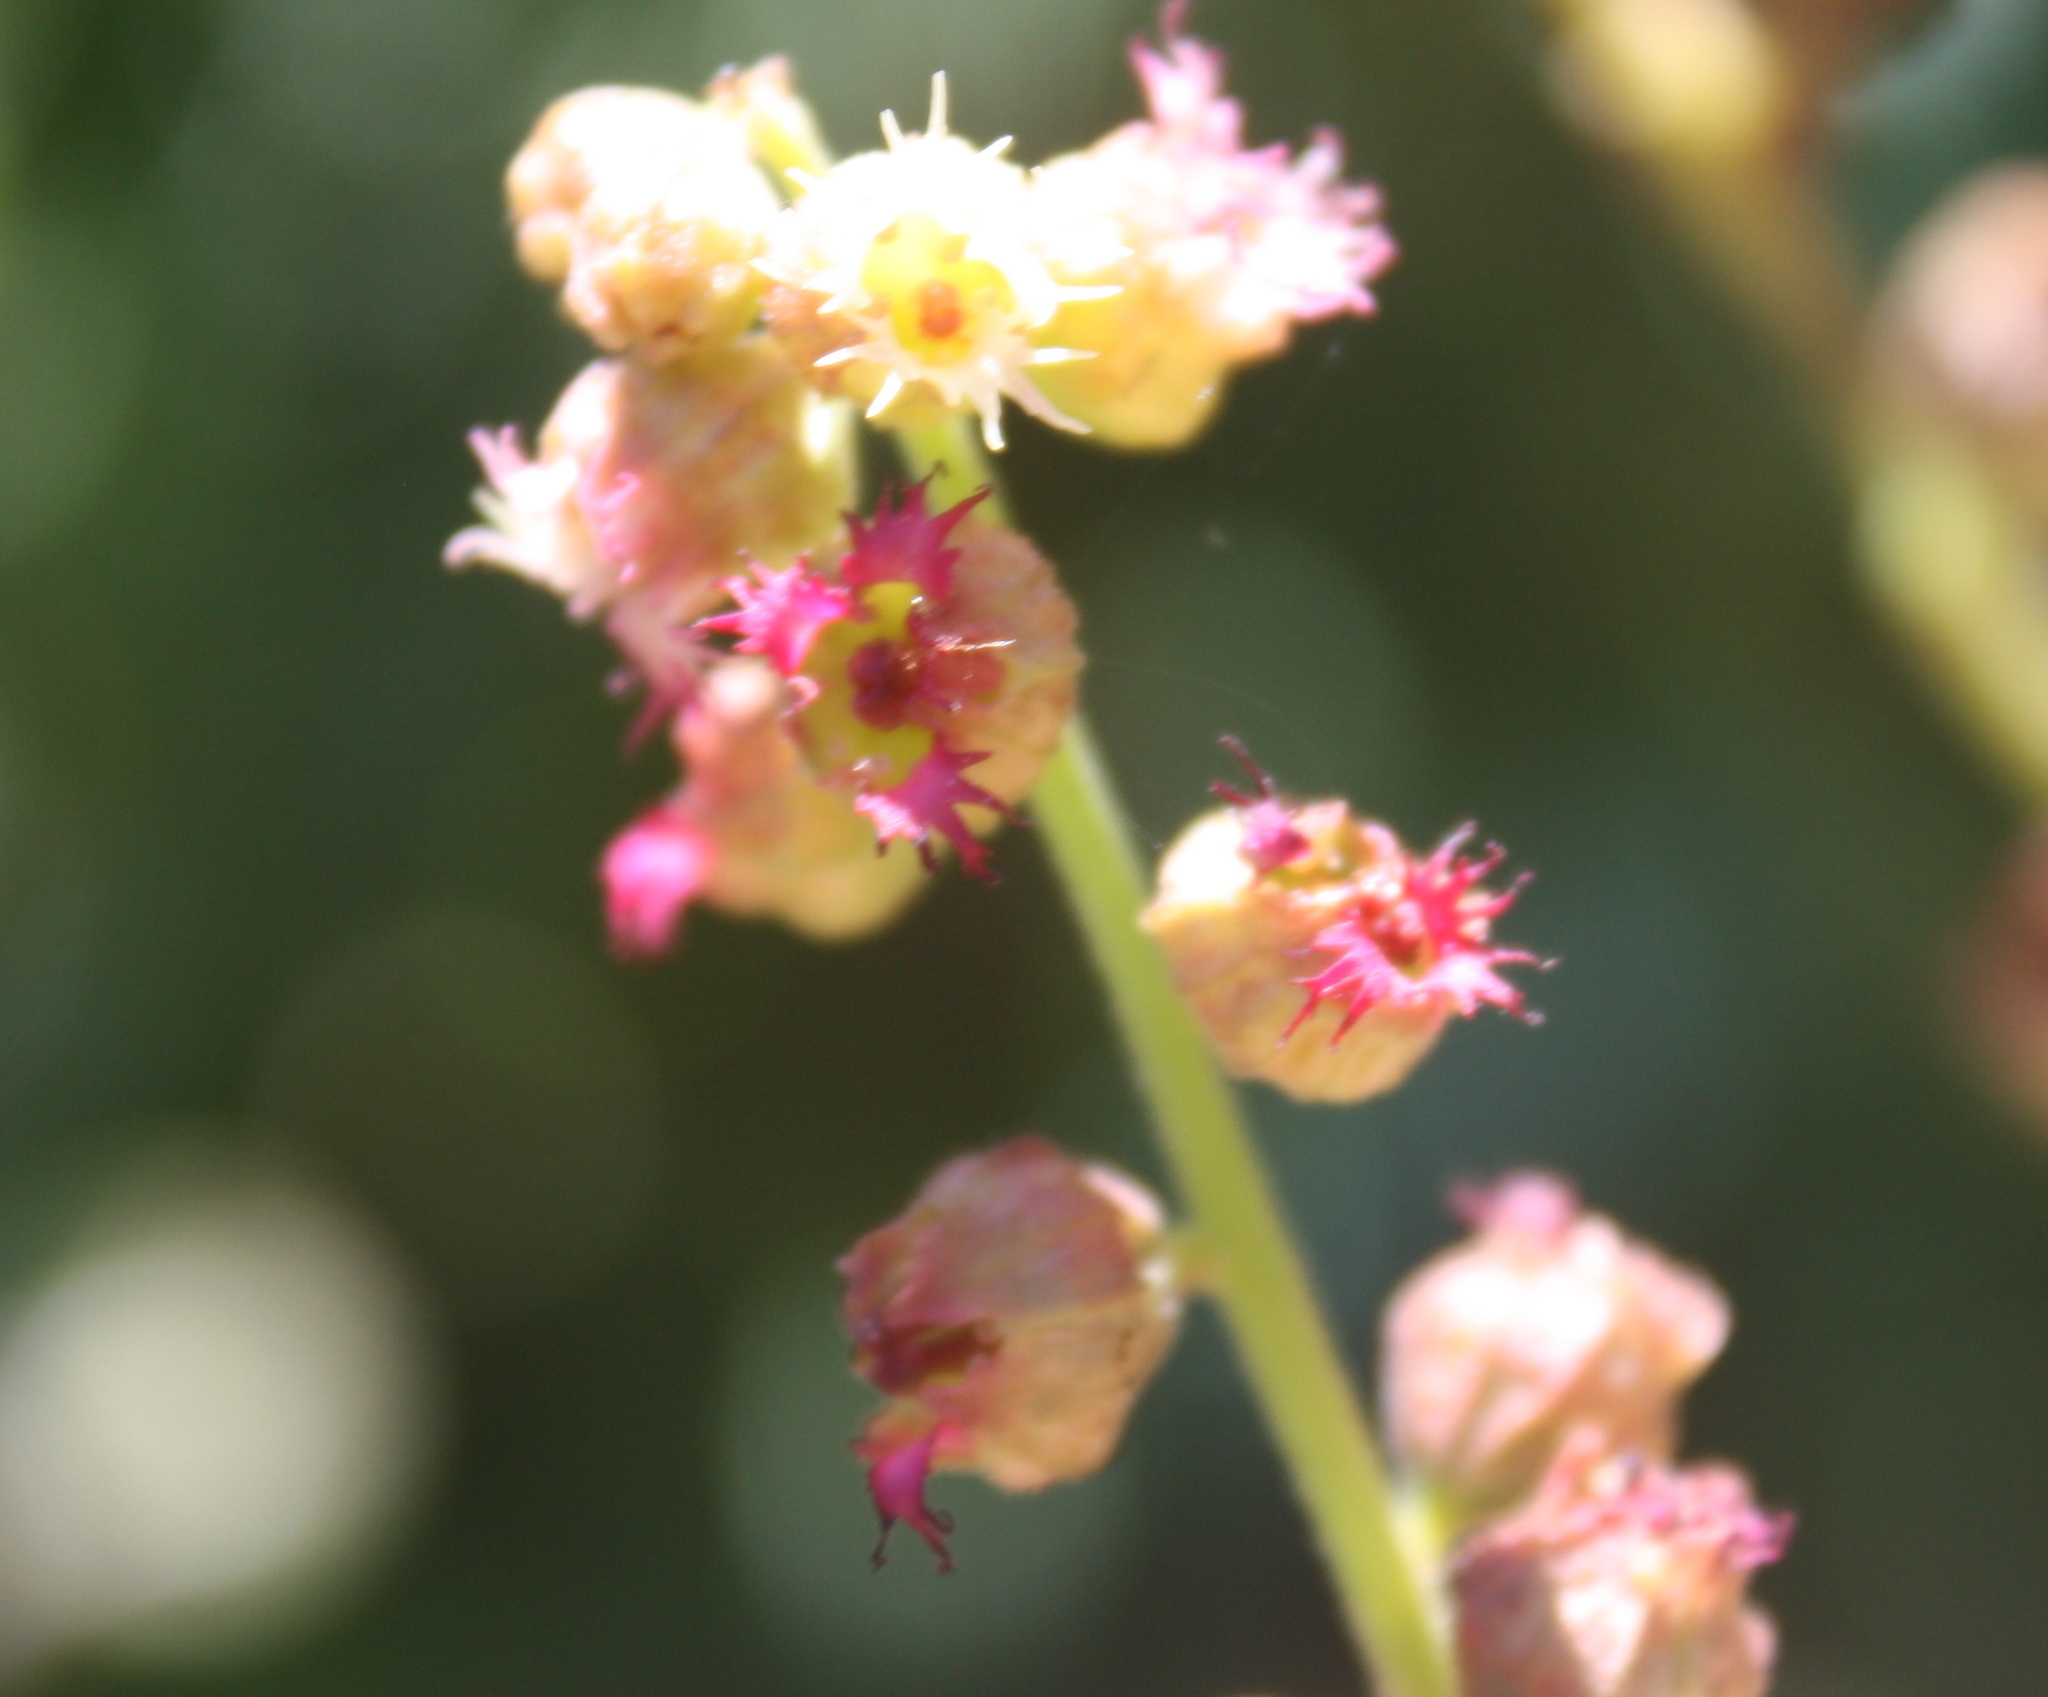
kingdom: Plantae
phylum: Tracheophyta
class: Magnoliopsida
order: Saxifragales
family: Saxifragaceae
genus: Tellima
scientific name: Tellima grandiflora
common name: Fringecups
